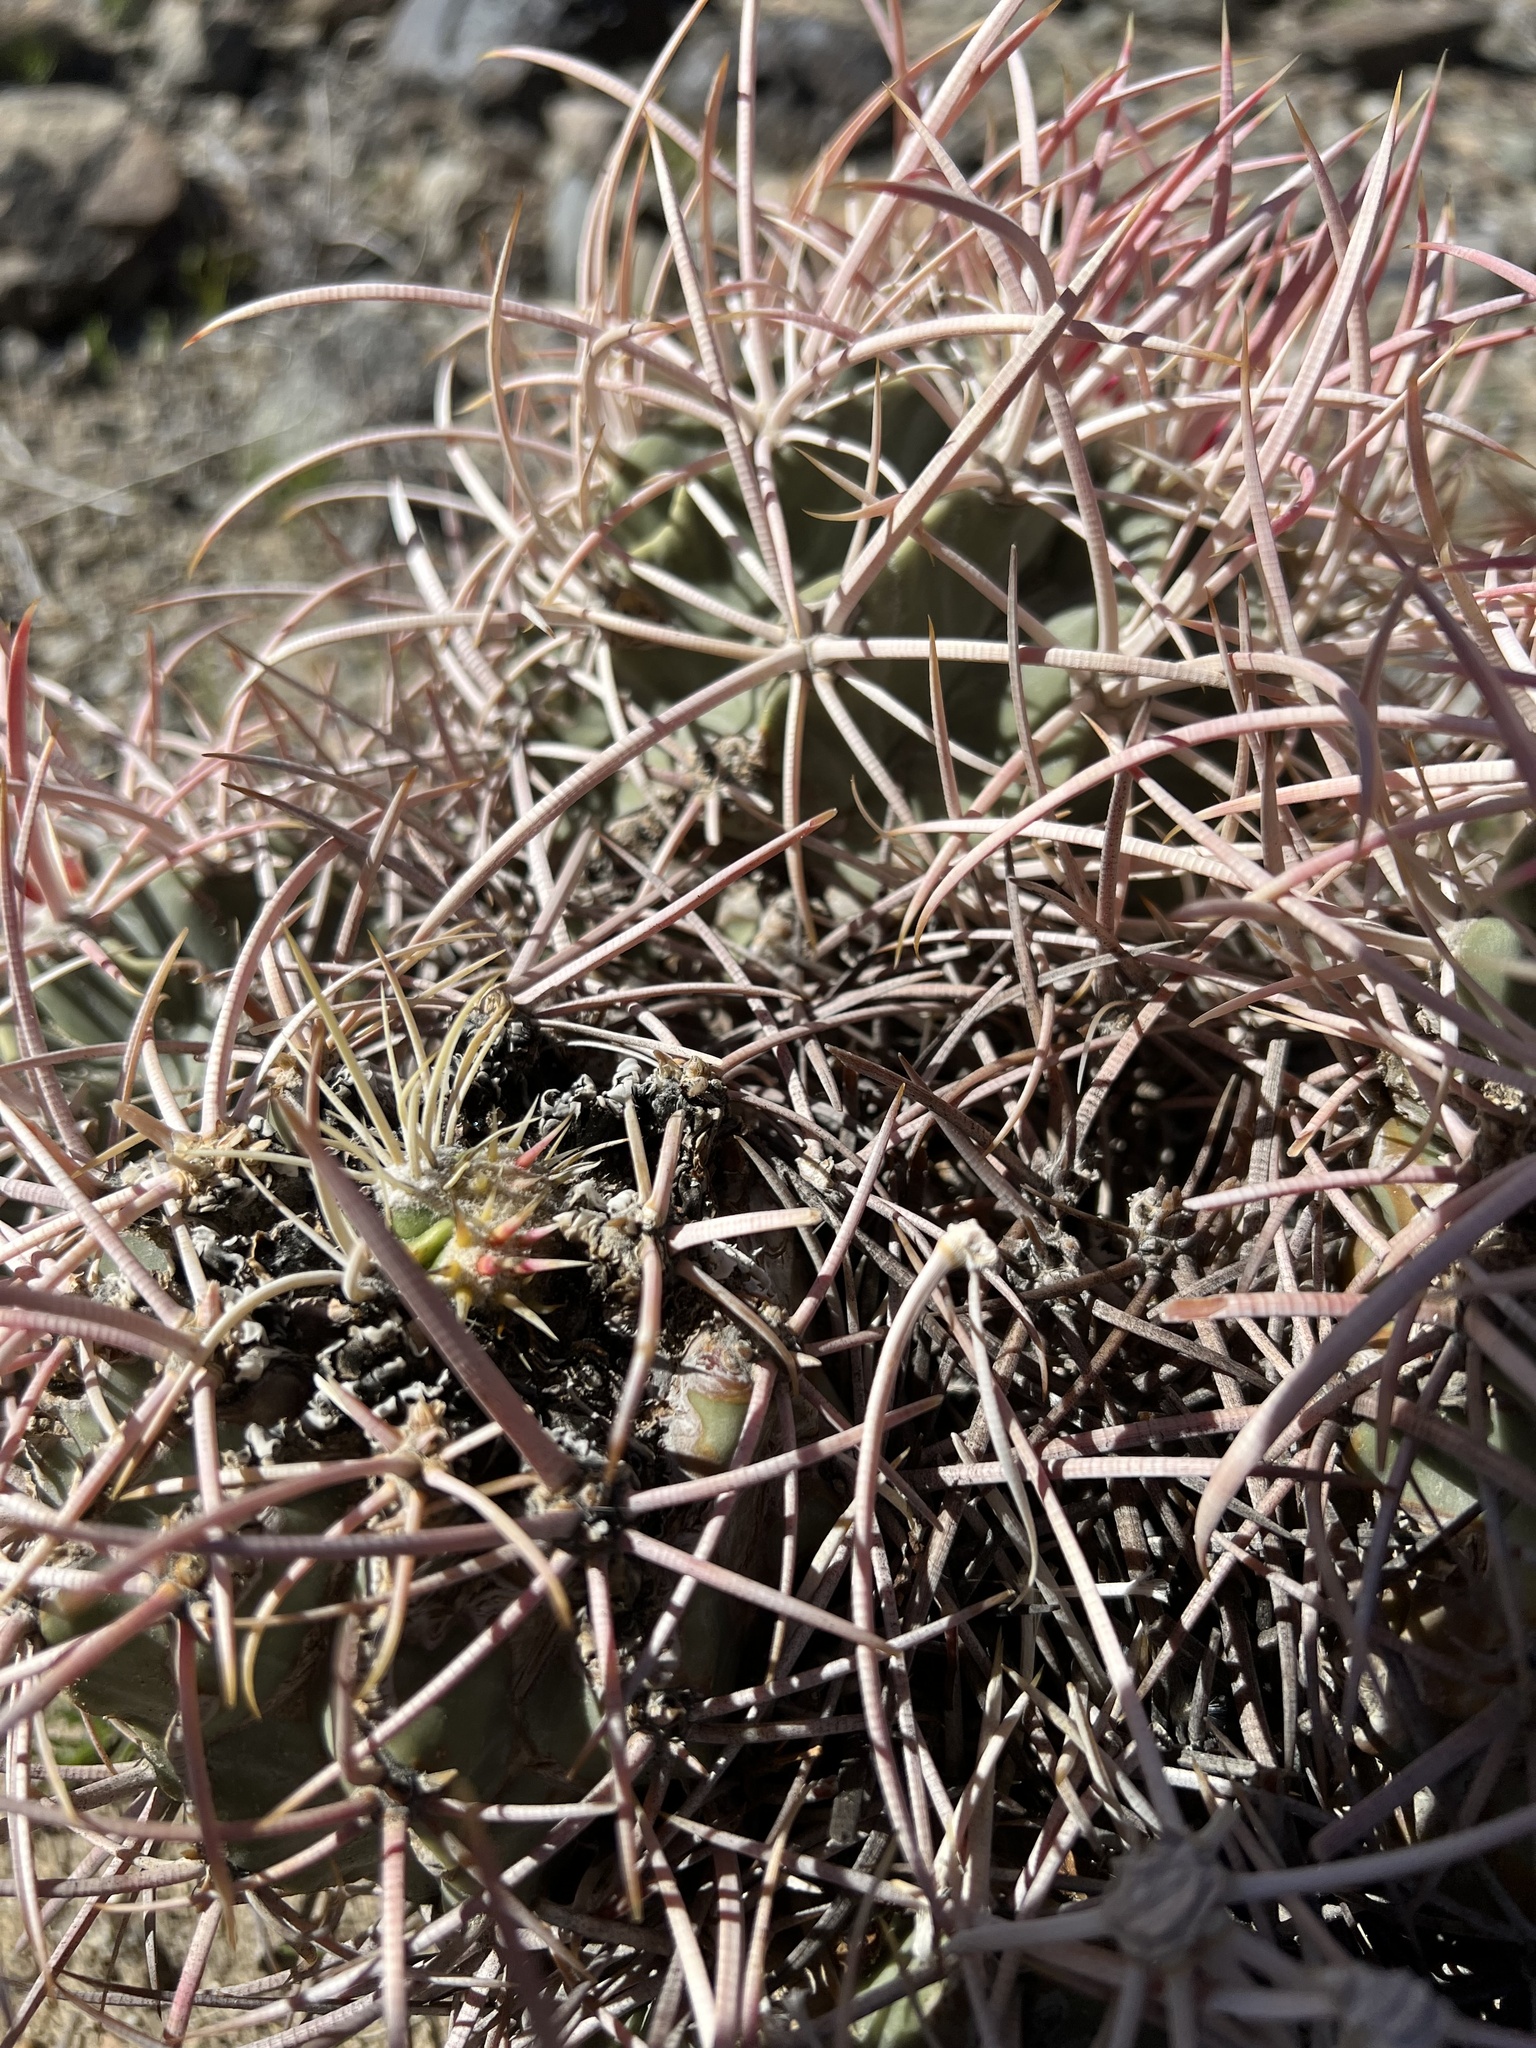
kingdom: Plantae
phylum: Tracheophyta
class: Magnoliopsida
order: Caryophyllales
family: Cactaceae
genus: Echinocactus
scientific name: Echinocactus polycephalus
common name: Cottontop cactus
